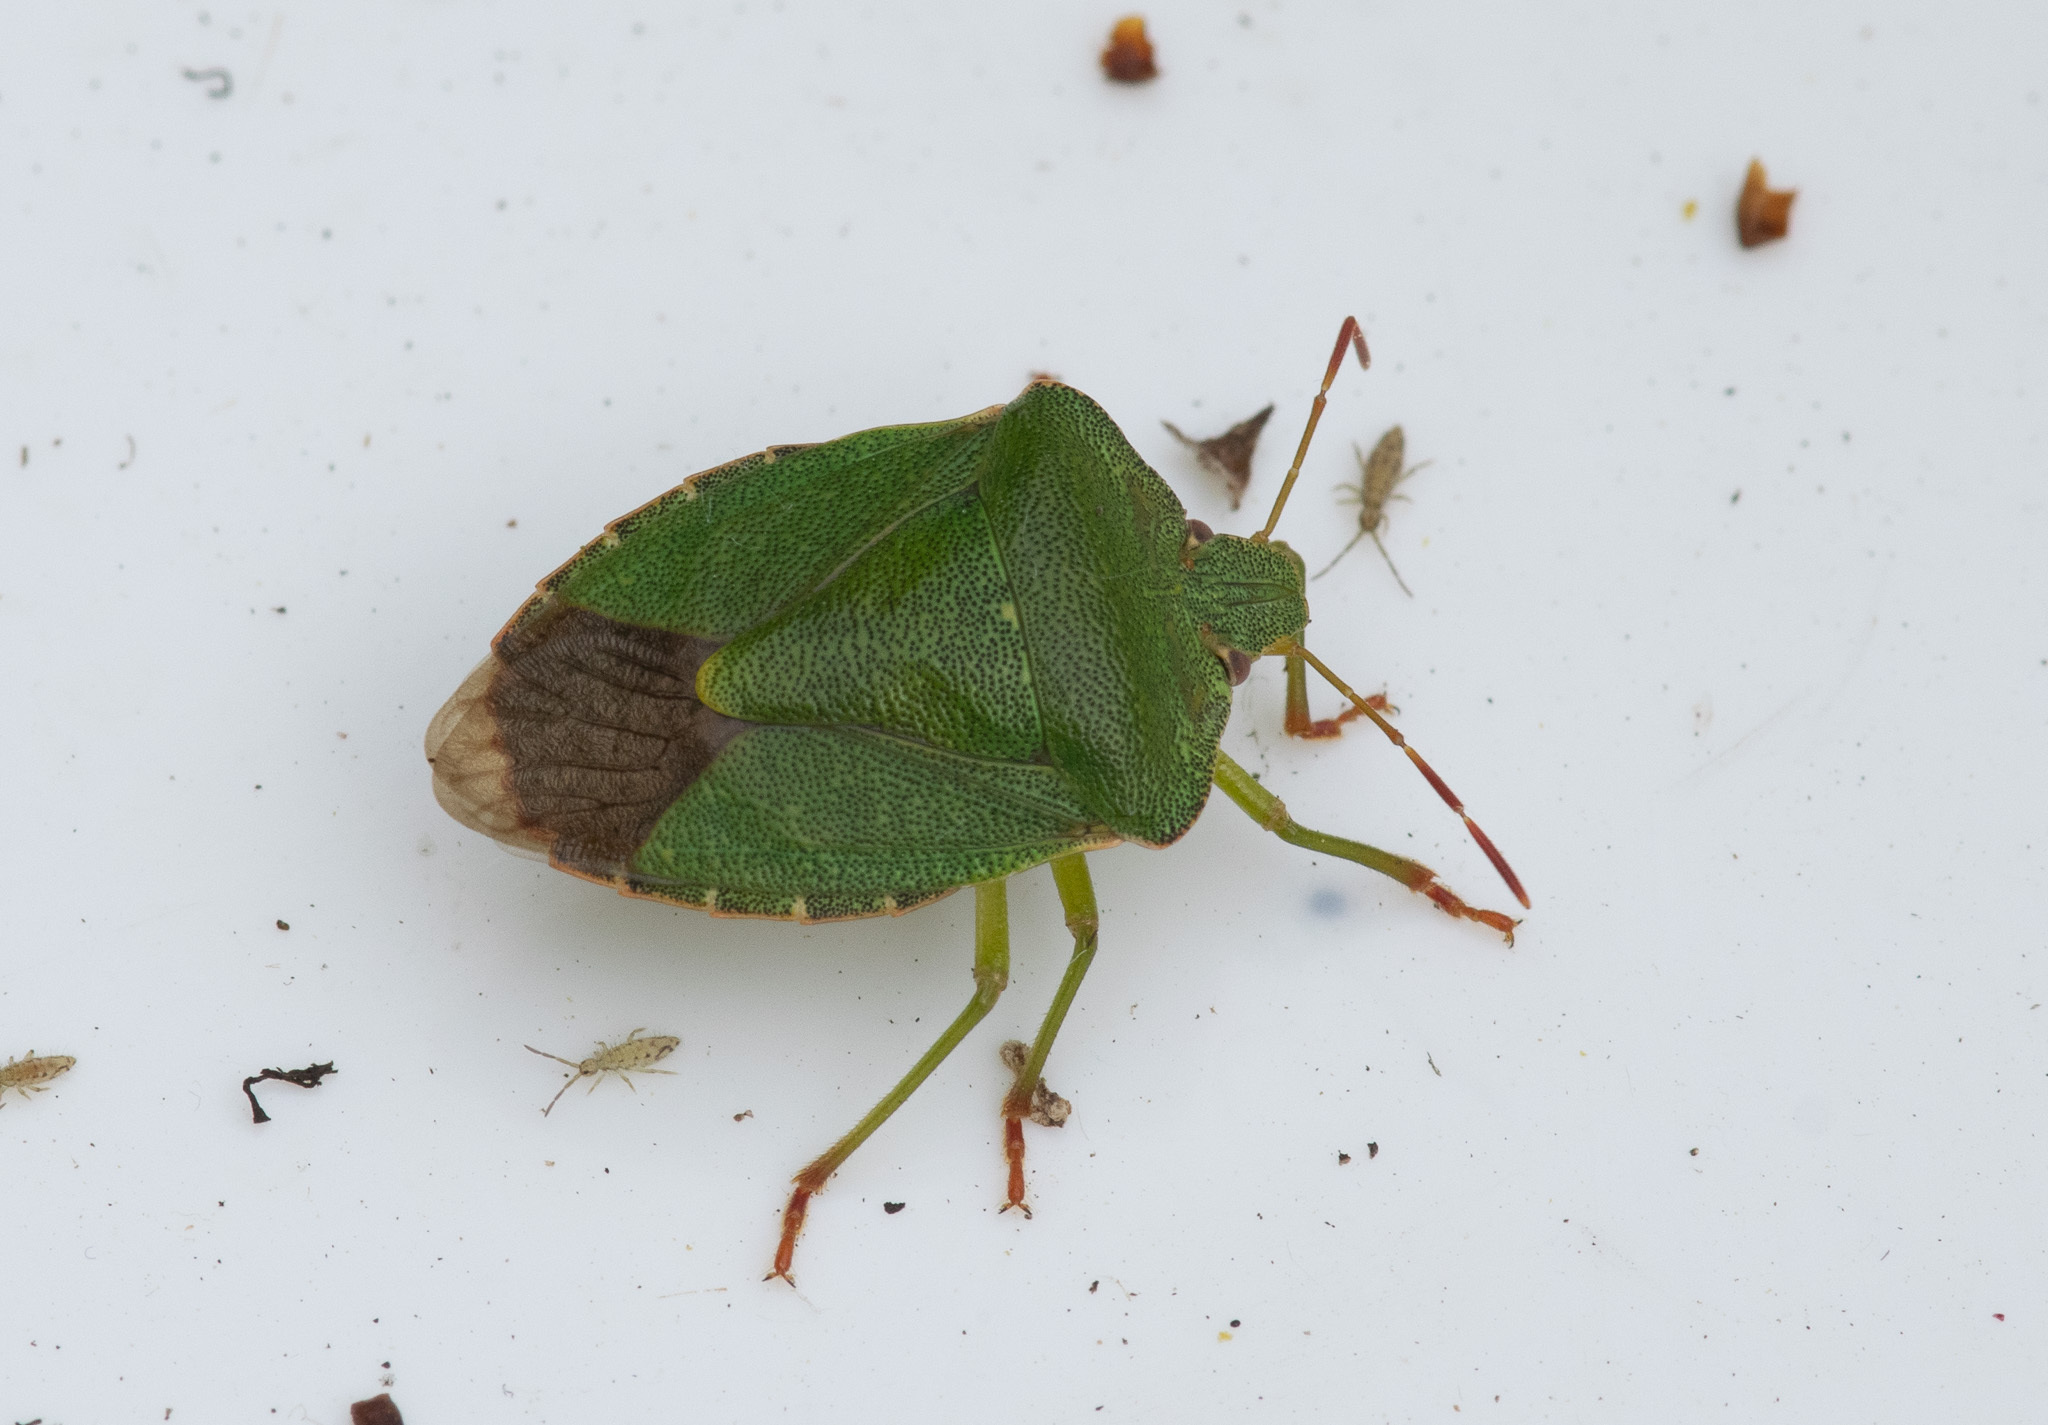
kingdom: Animalia
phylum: Arthropoda
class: Insecta
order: Hemiptera
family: Pentatomidae
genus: Palomena
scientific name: Palomena prasina
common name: Green shieldbug
